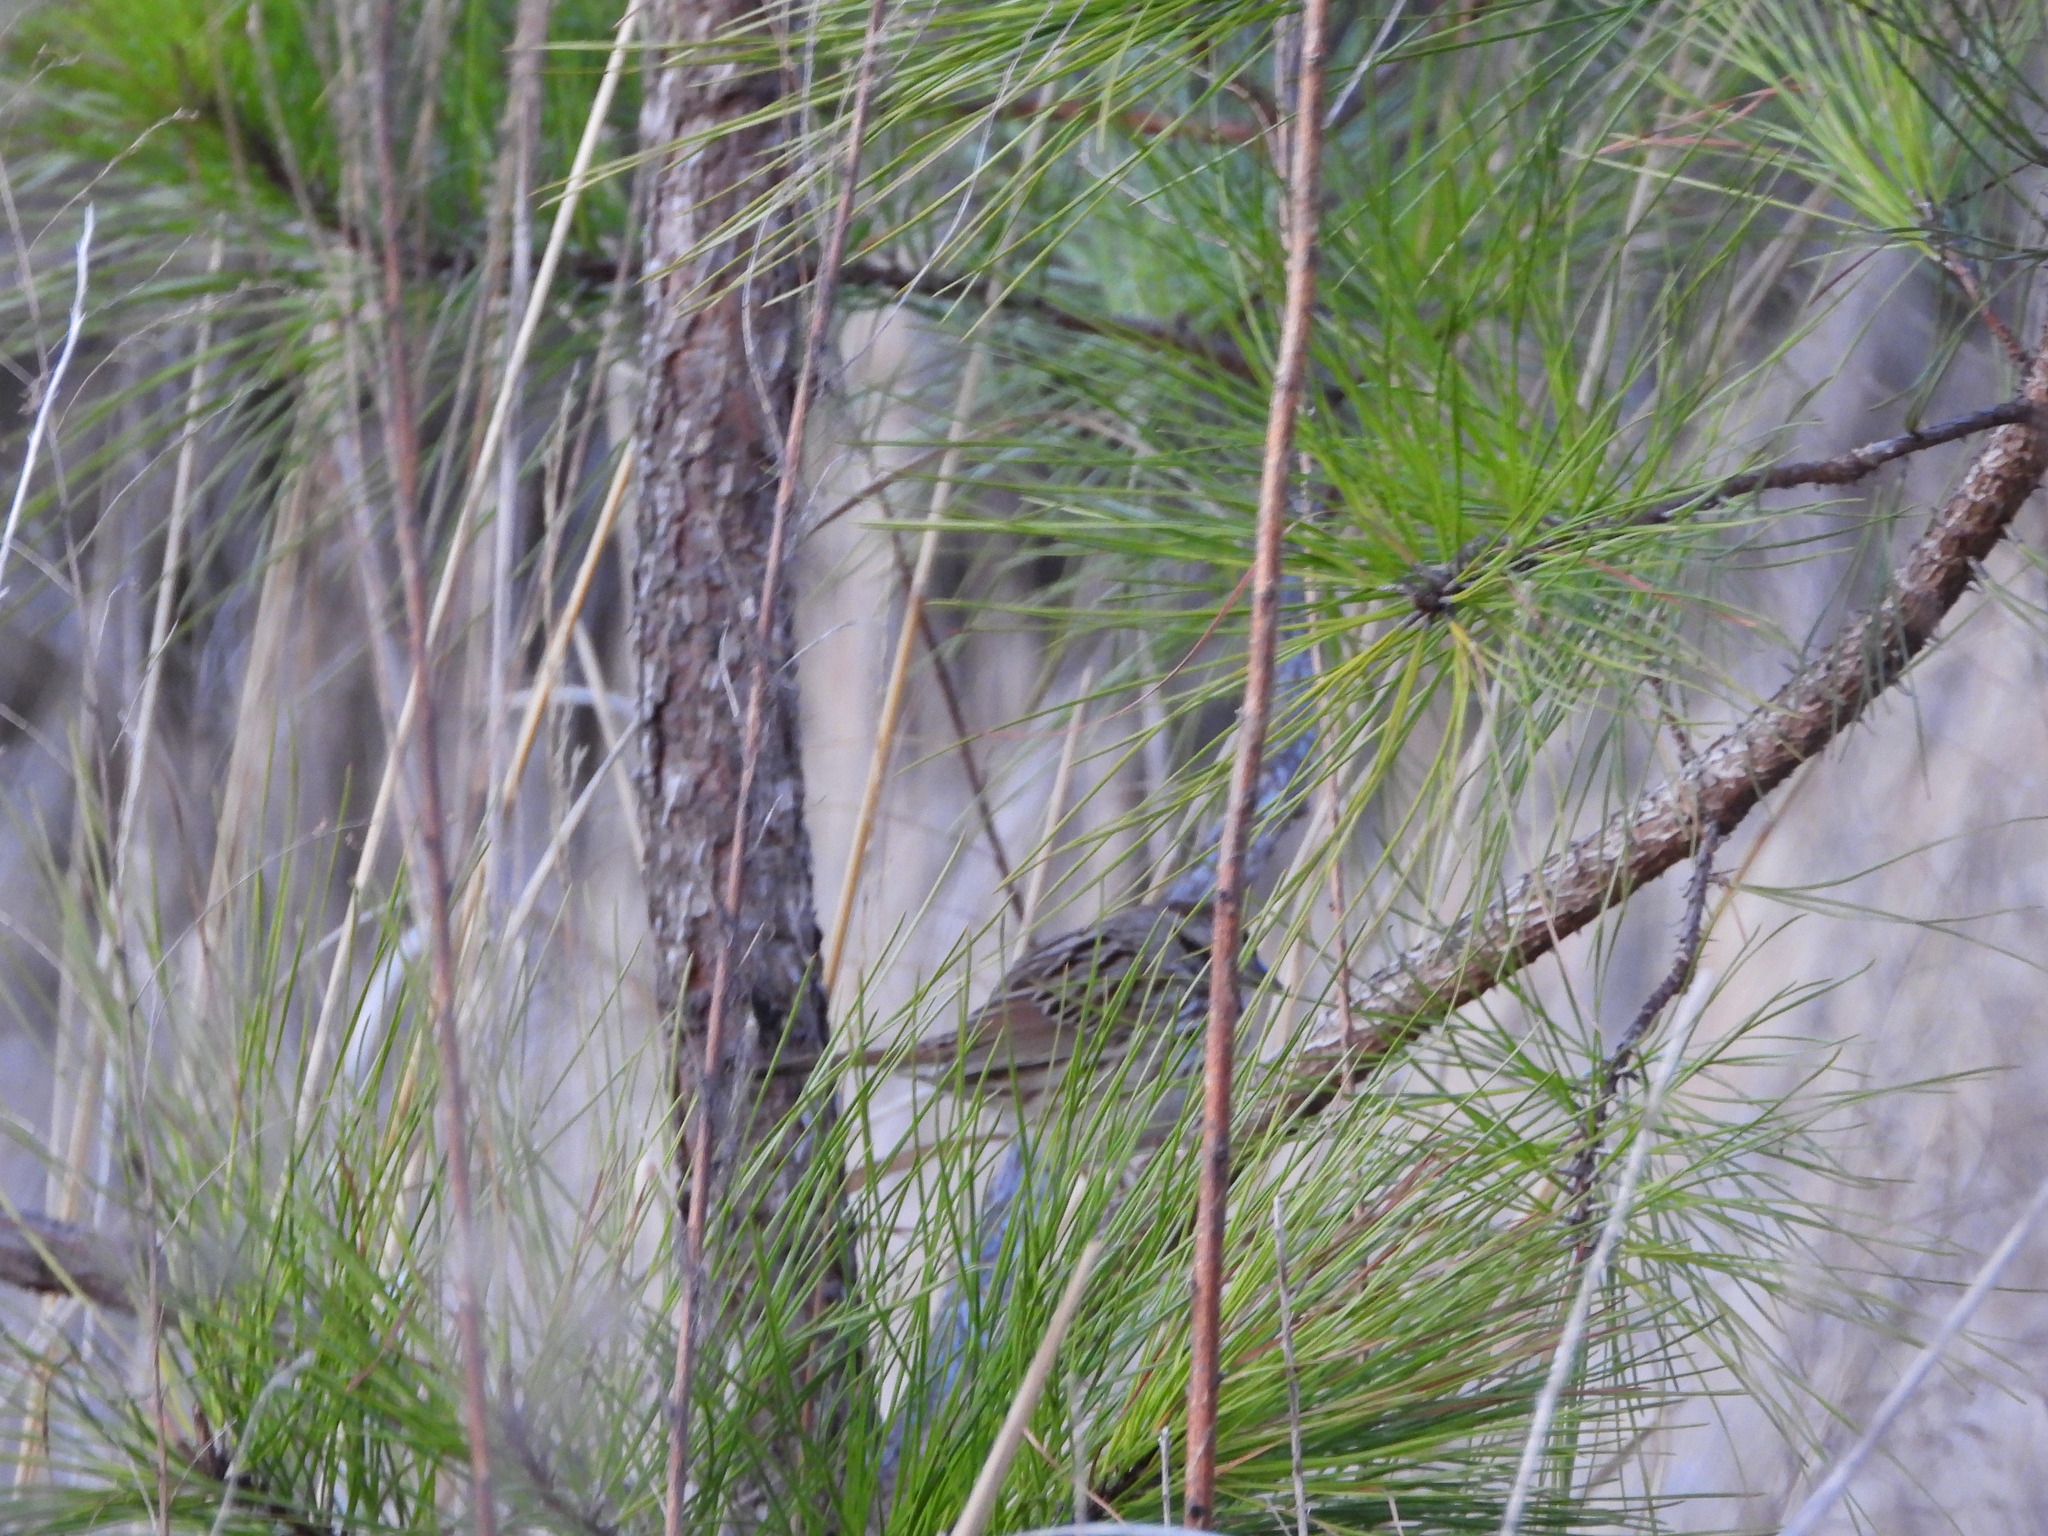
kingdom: Animalia
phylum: Chordata
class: Aves
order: Passeriformes
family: Passerellidae
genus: Melospiza
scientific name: Melospiza melodia
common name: Song sparrow
